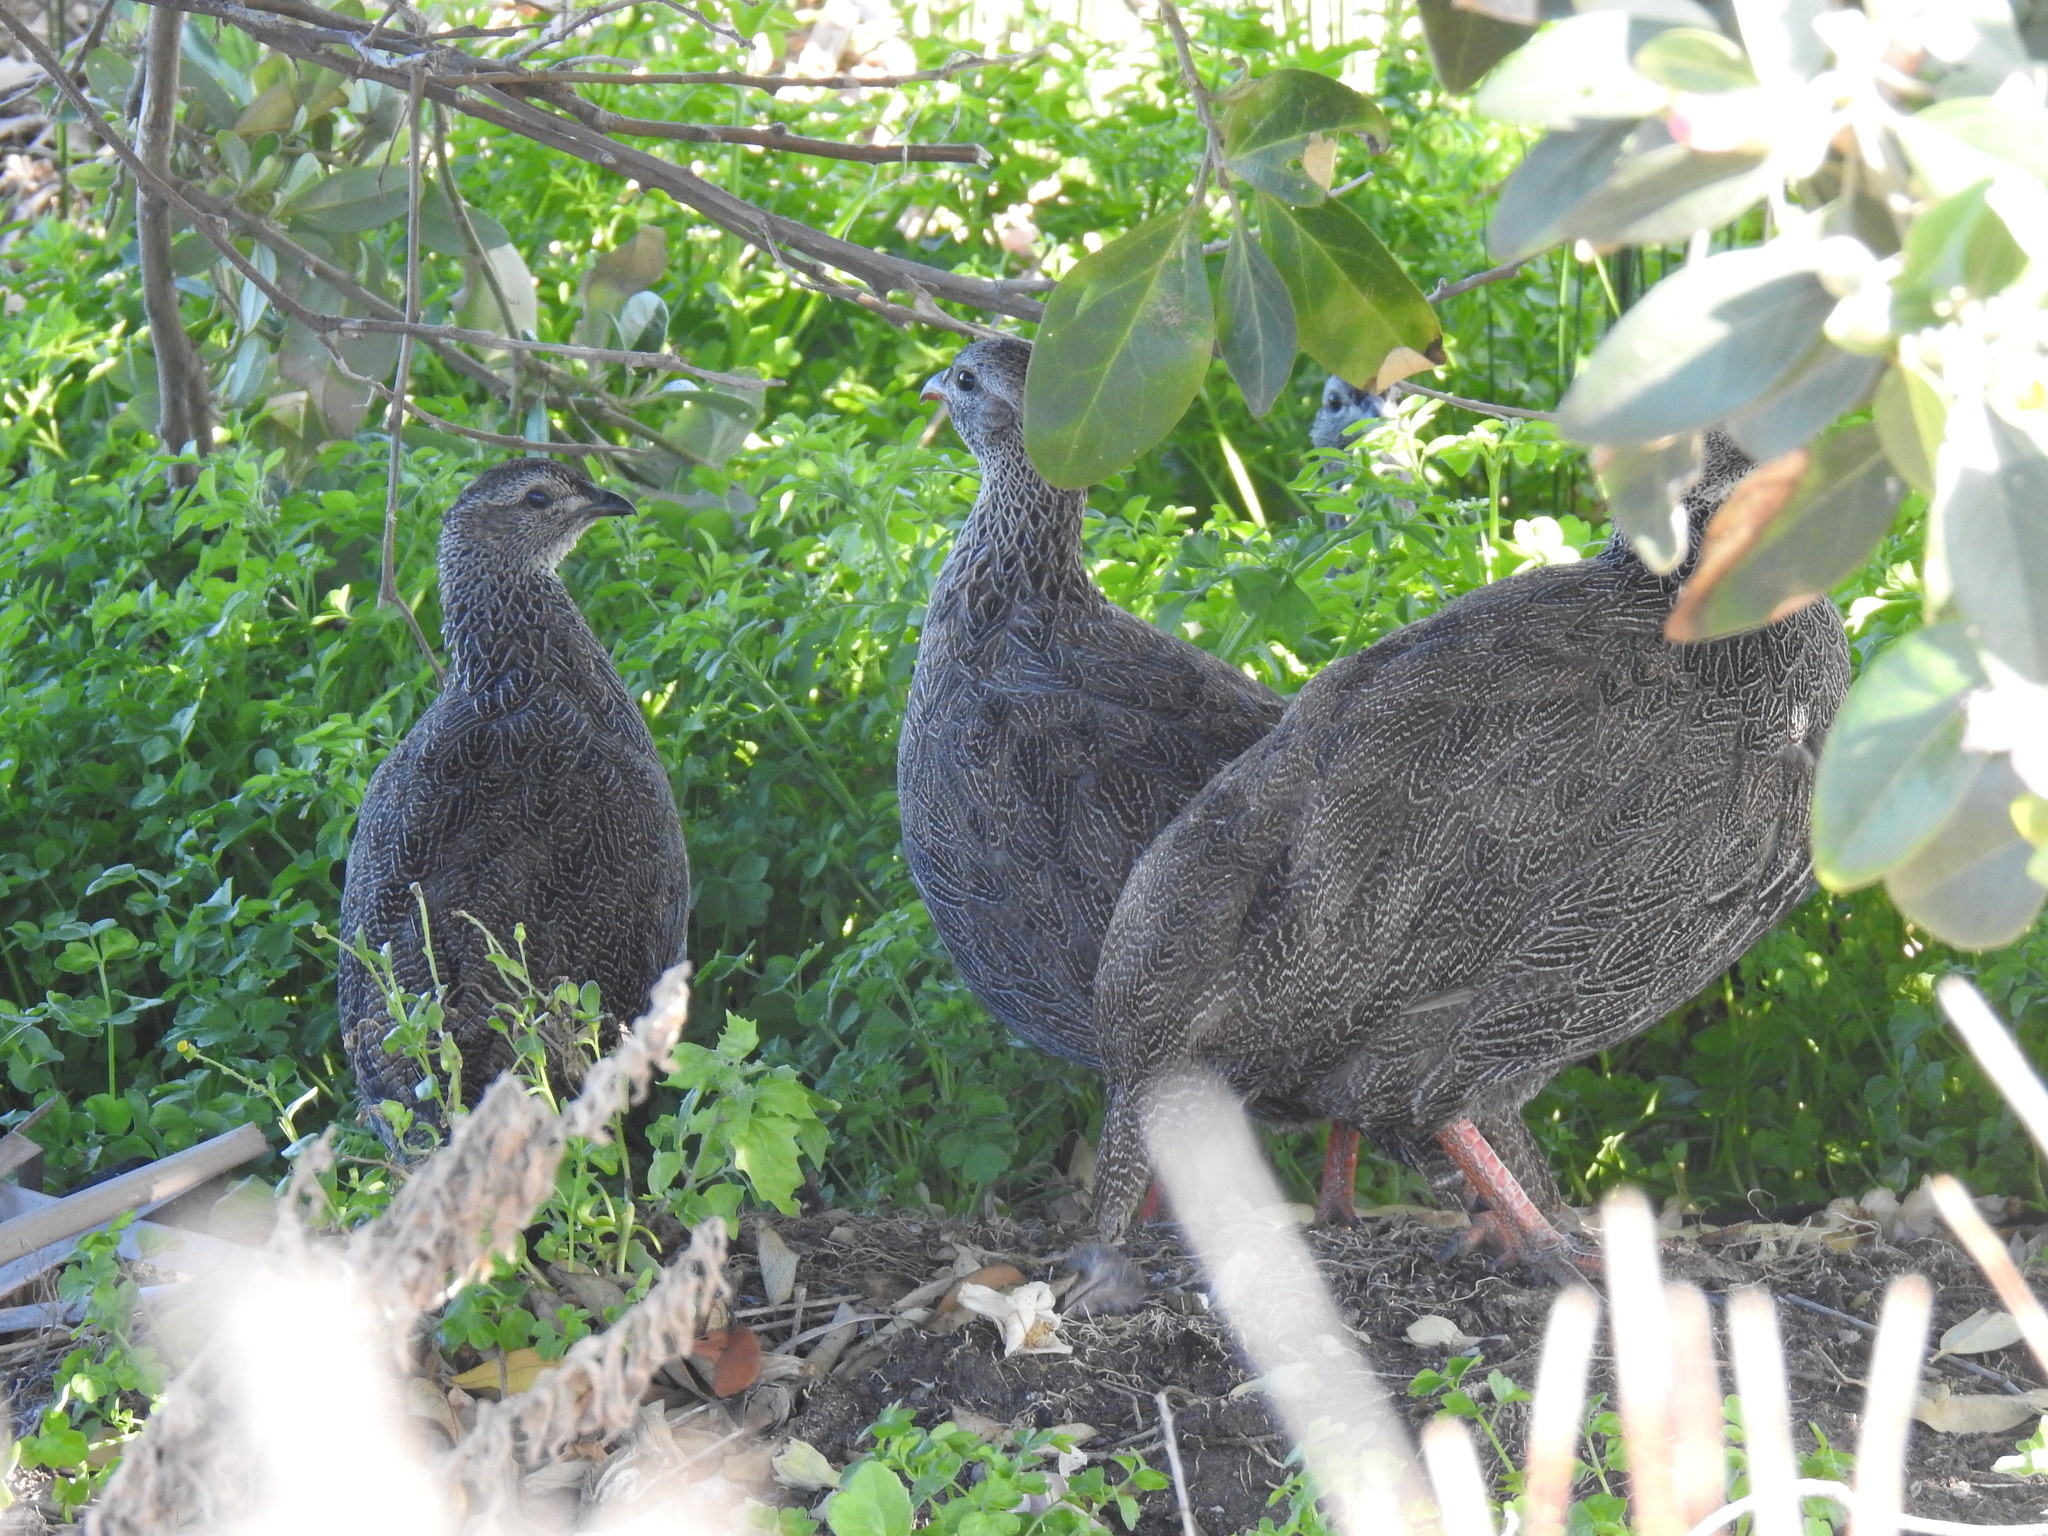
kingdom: Animalia
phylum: Chordata
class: Aves
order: Galliformes
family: Phasianidae
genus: Pternistis
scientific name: Pternistis capensis
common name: Cape spurfowl
